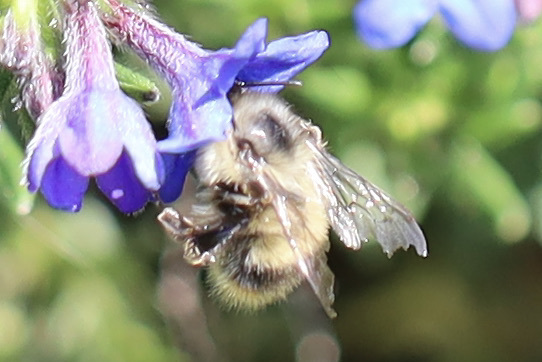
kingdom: Animalia
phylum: Arthropoda
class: Insecta
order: Hymenoptera
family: Apidae
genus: Bombus
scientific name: Bombus mixtus
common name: Fuzzy-horned bumble bee
